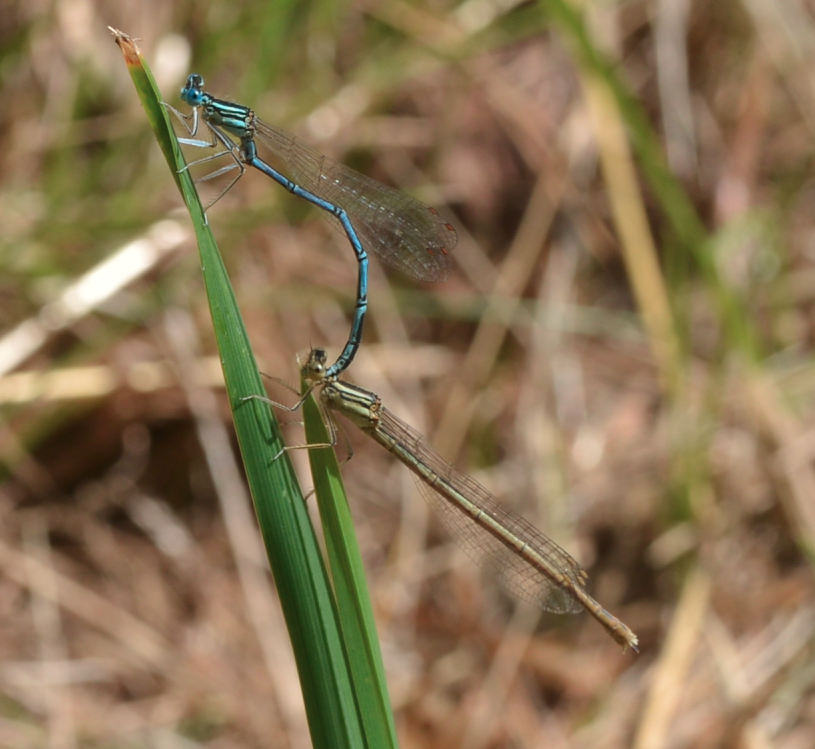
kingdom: Animalia
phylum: Arthropoda
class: Insecta
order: Odonata
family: Platycnemididae
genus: Platycnemis
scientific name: Platycnemis pennipes
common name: White-legged damselfly
